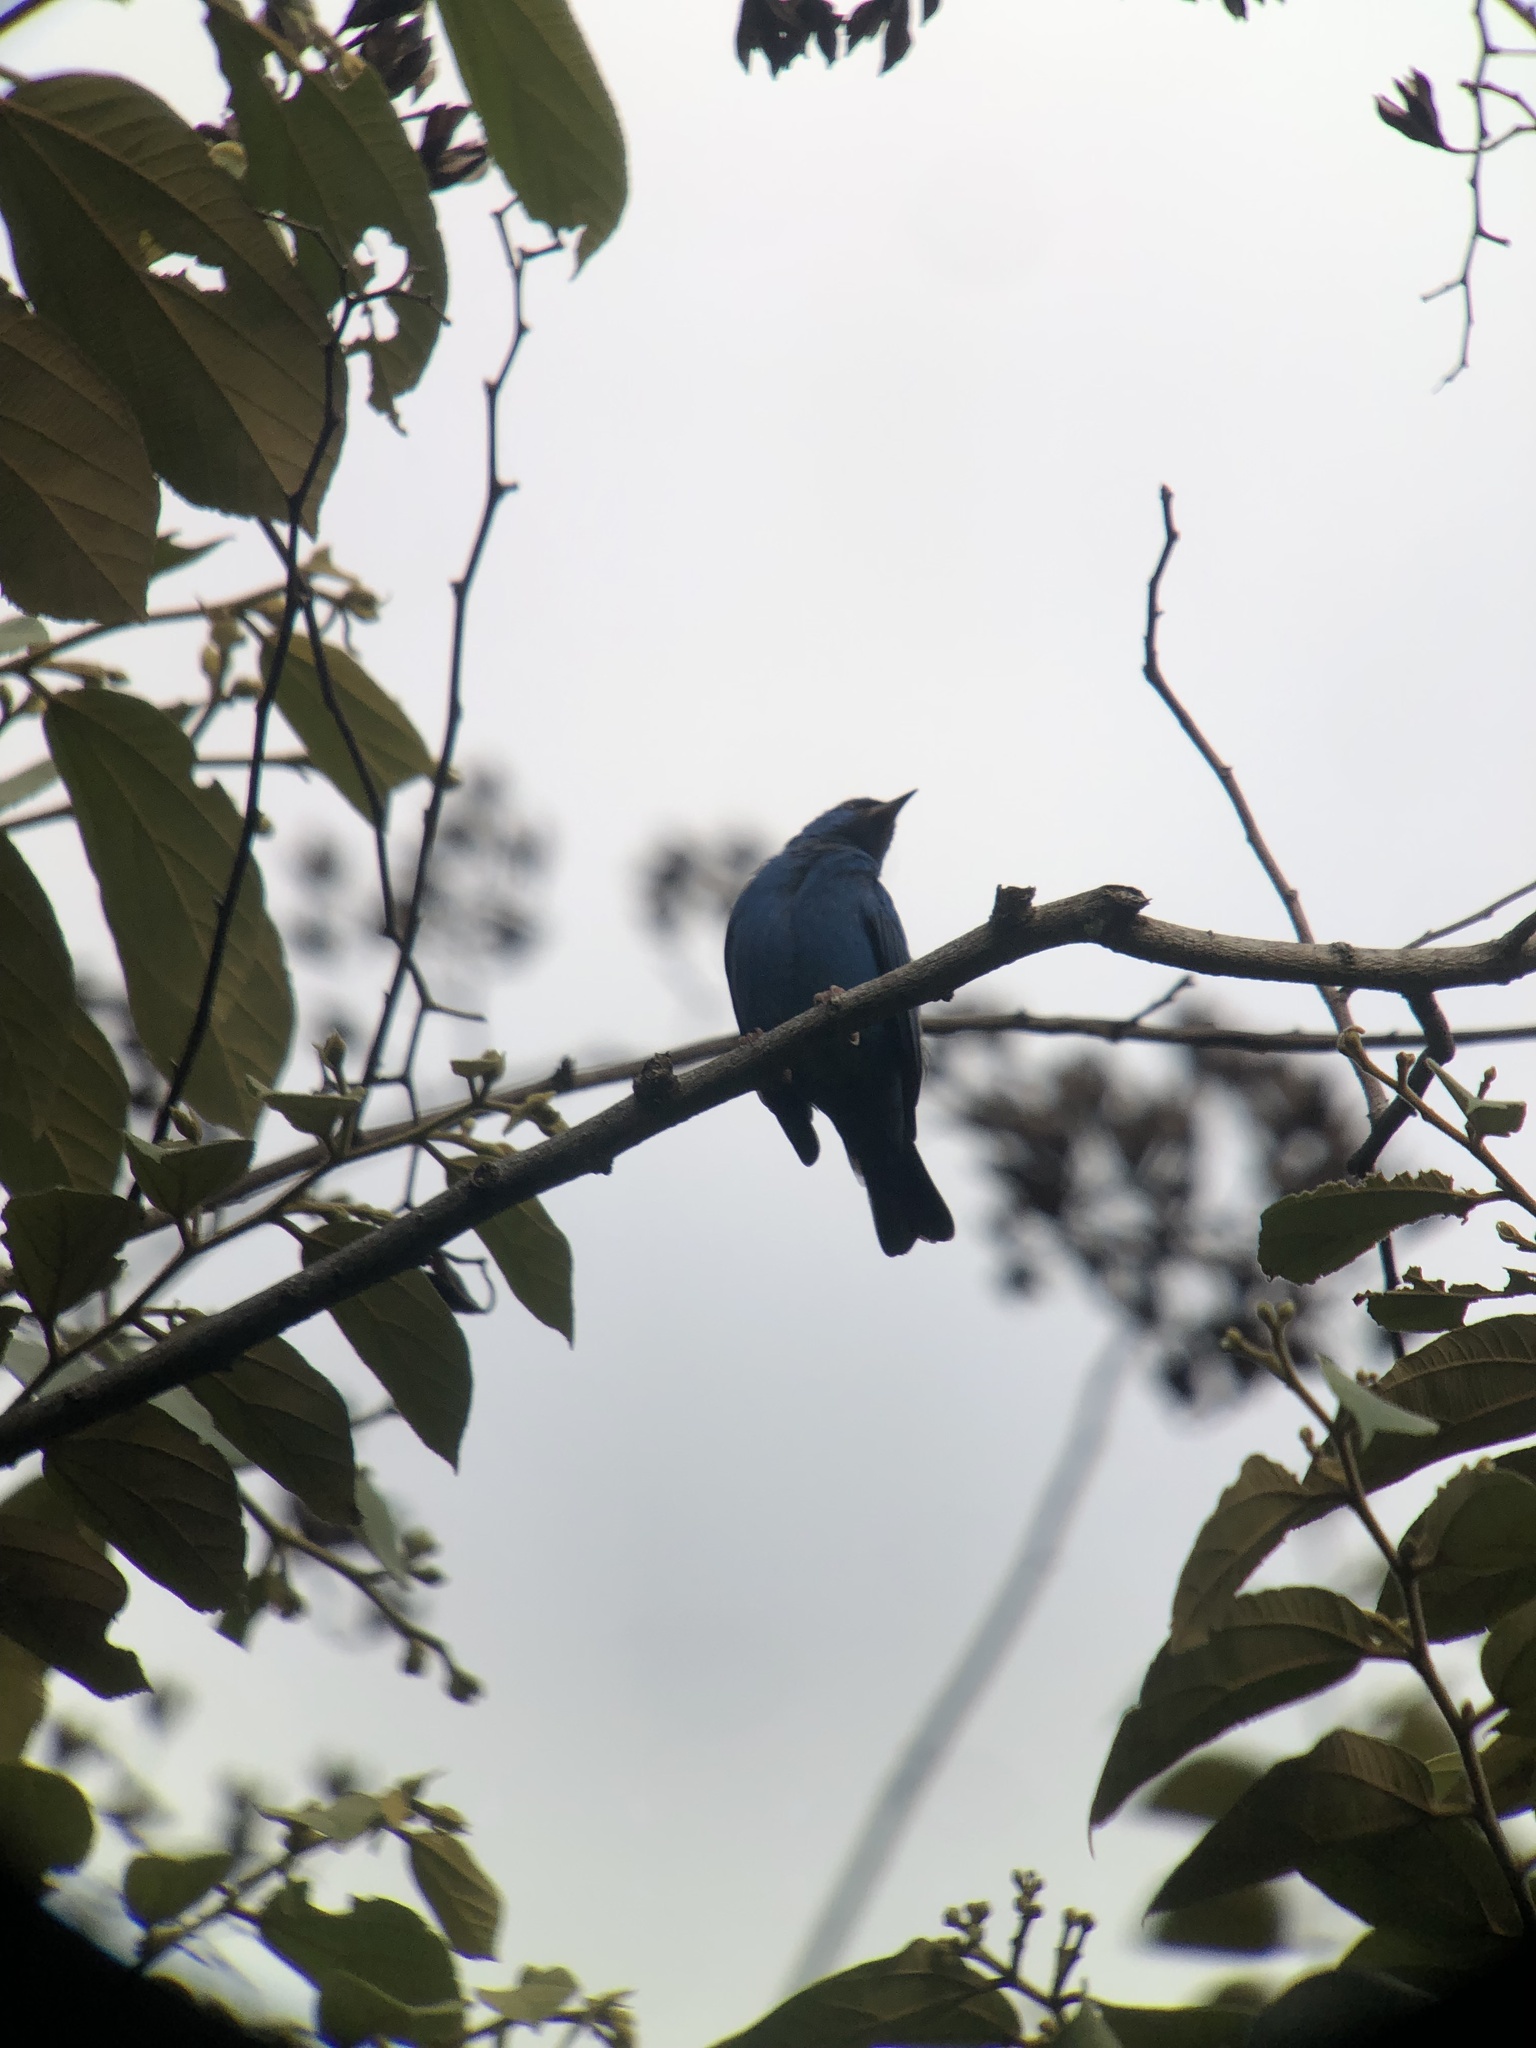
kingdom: Animalia
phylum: Chordata
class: Aves
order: Passeriformes
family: Thraupidae
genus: Dacnis
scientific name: Dacnis cayana
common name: Blue dacnis
